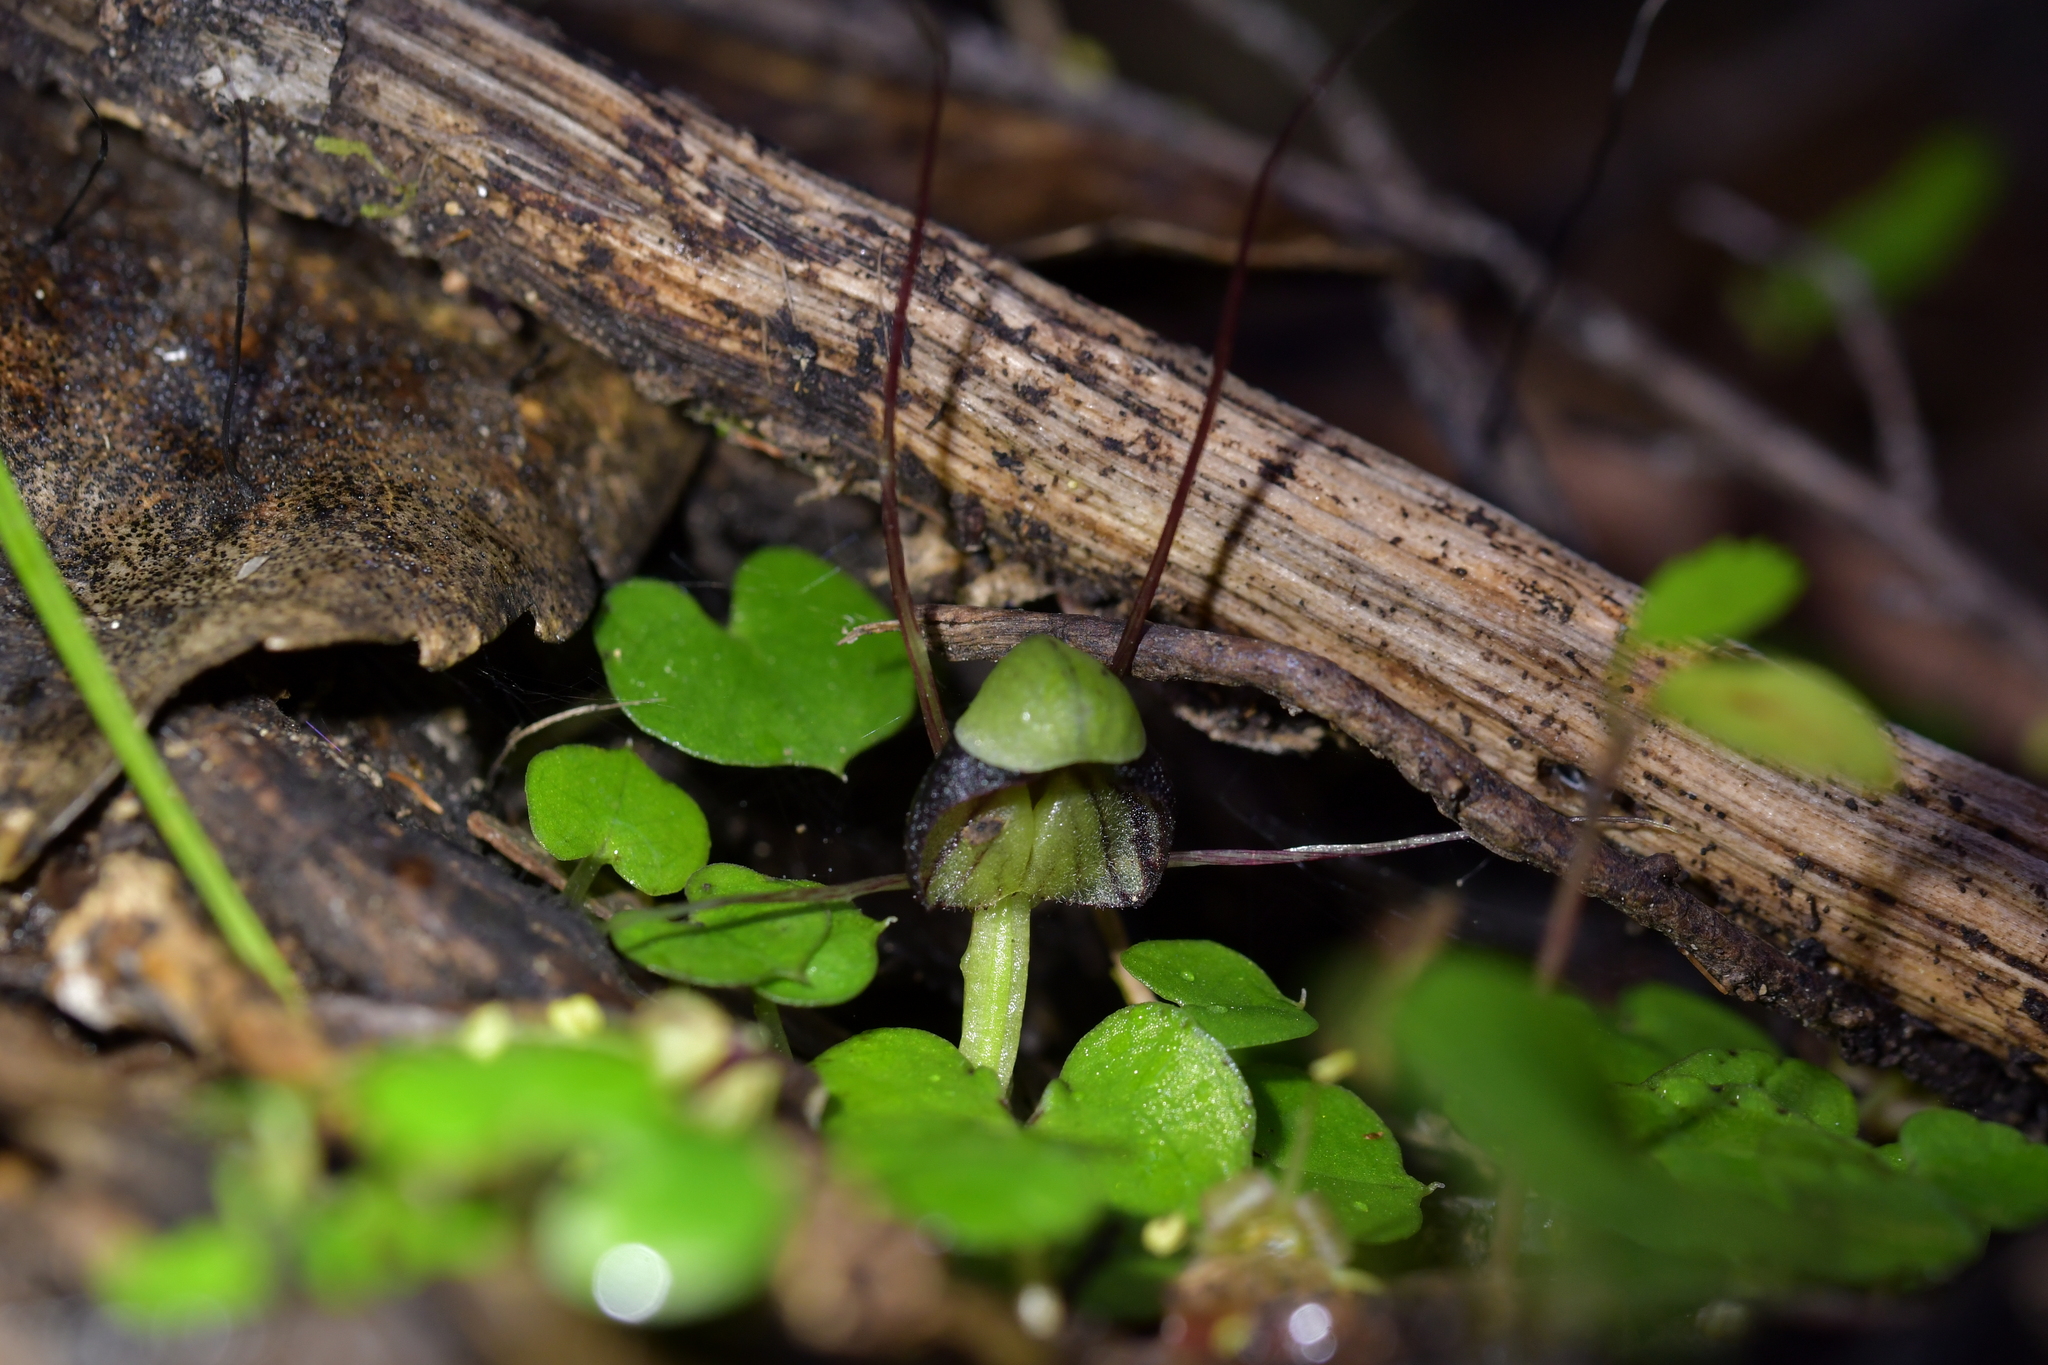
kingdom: Plantae
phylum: Tracheophyta
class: Liliopsida
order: Asparagales
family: Orchidaceae
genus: Corybas
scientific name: Corybas vitreus
